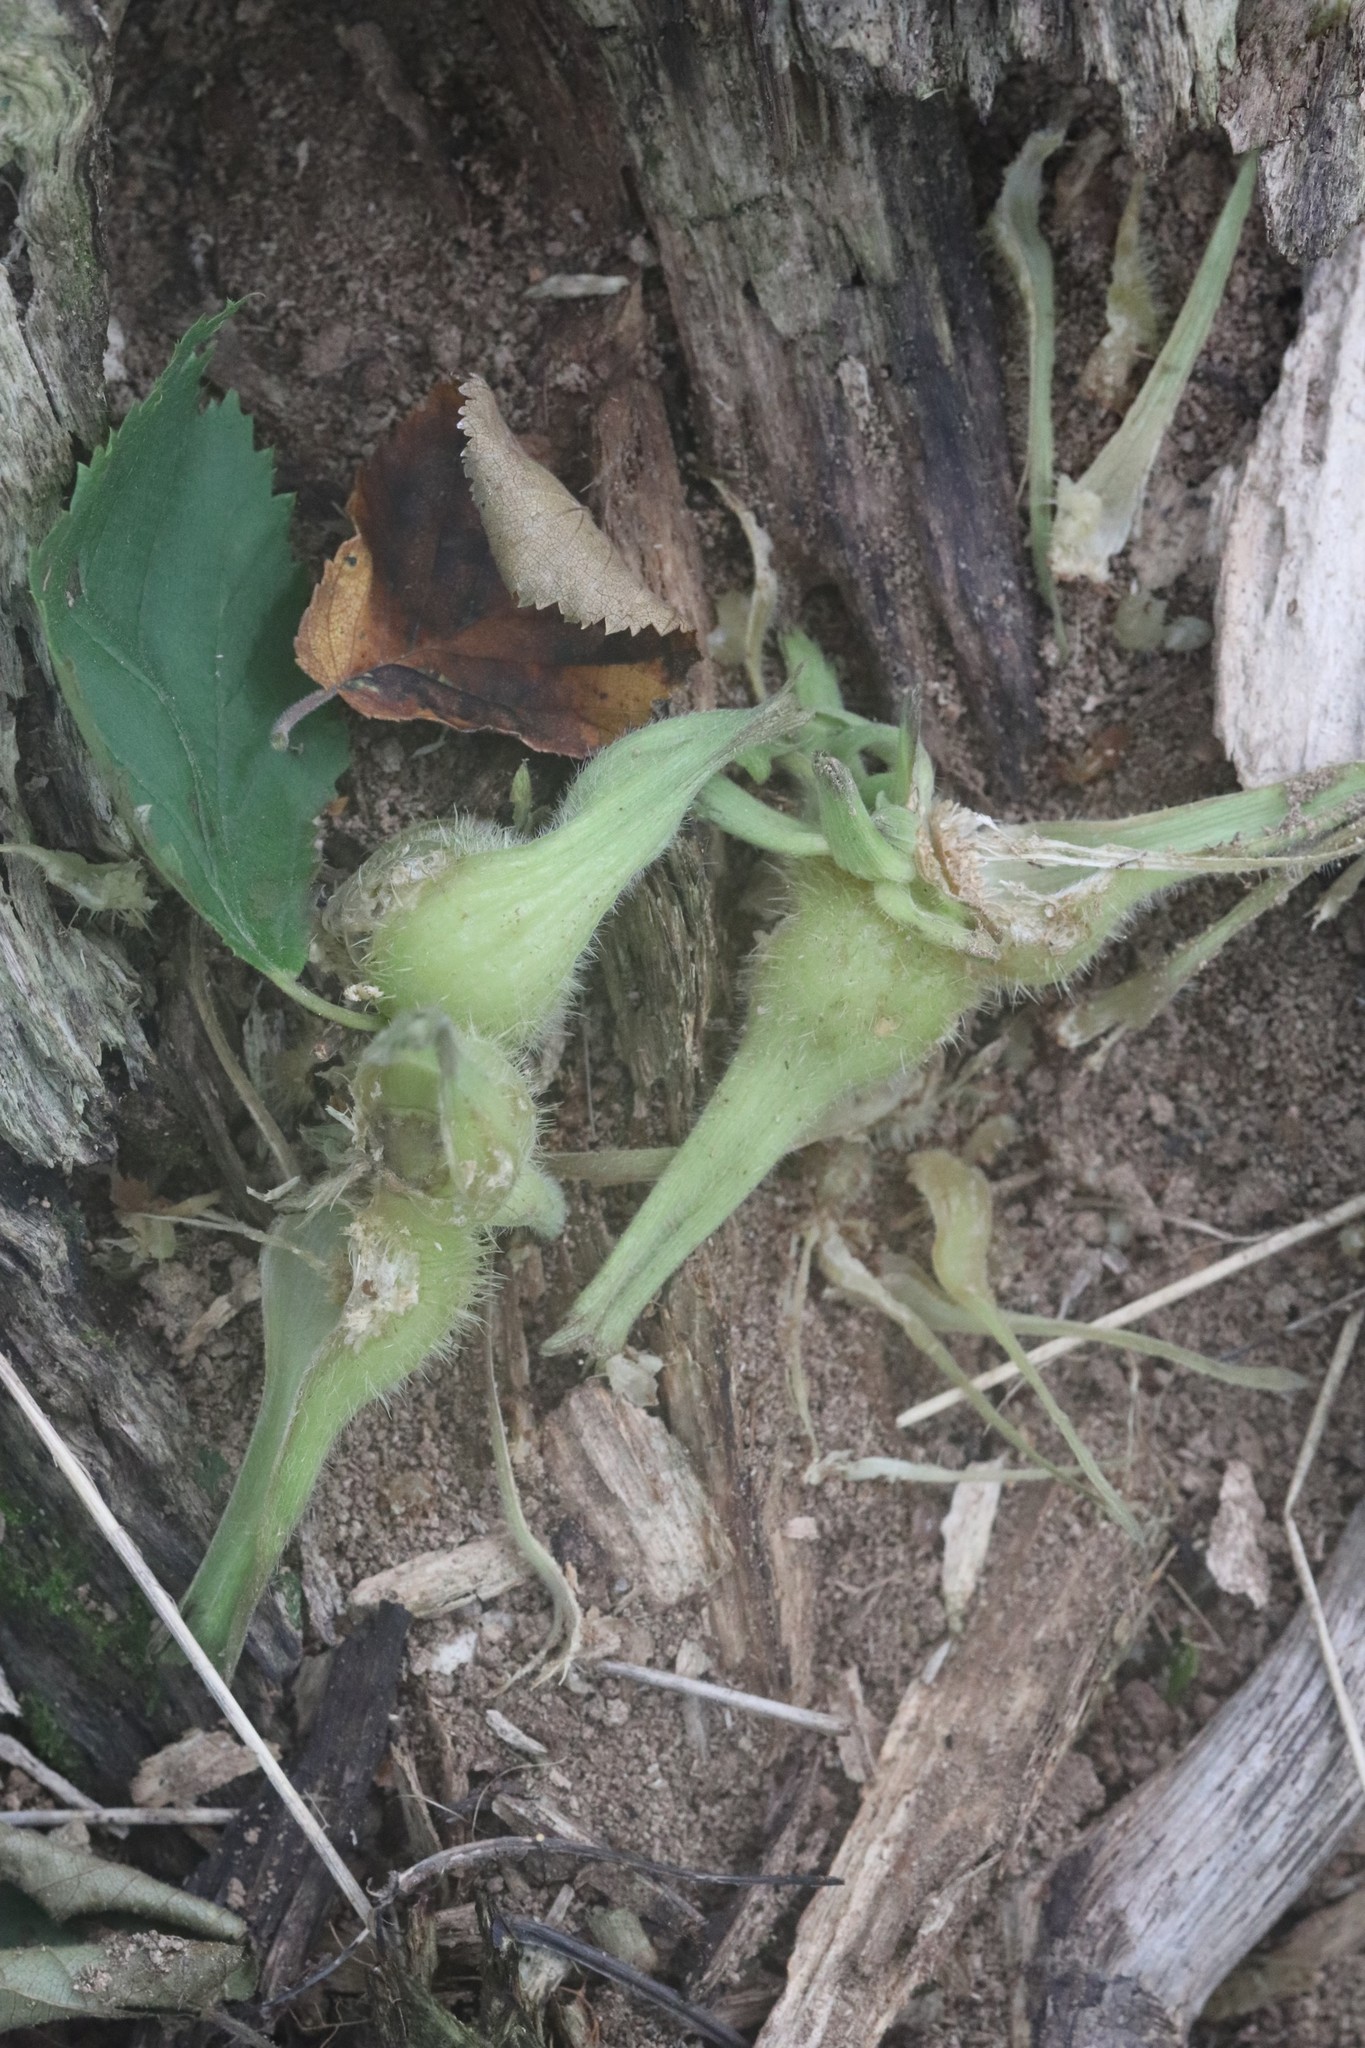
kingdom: Plantae
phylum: Tracheophyta
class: Magnoliopsida
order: Fagales
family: Betulaceae
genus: Corylus
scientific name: Corylus sieboldiana
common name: Japanese hazel
